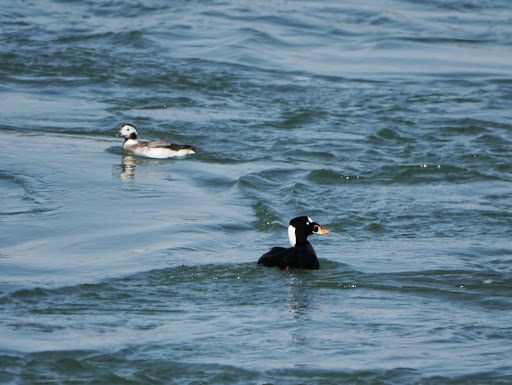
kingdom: Animalia
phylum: Chordata
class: Aves
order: Anseriformes
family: Anatidae
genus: Melanitta
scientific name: Melanitta perspicillata
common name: Surf scoter
